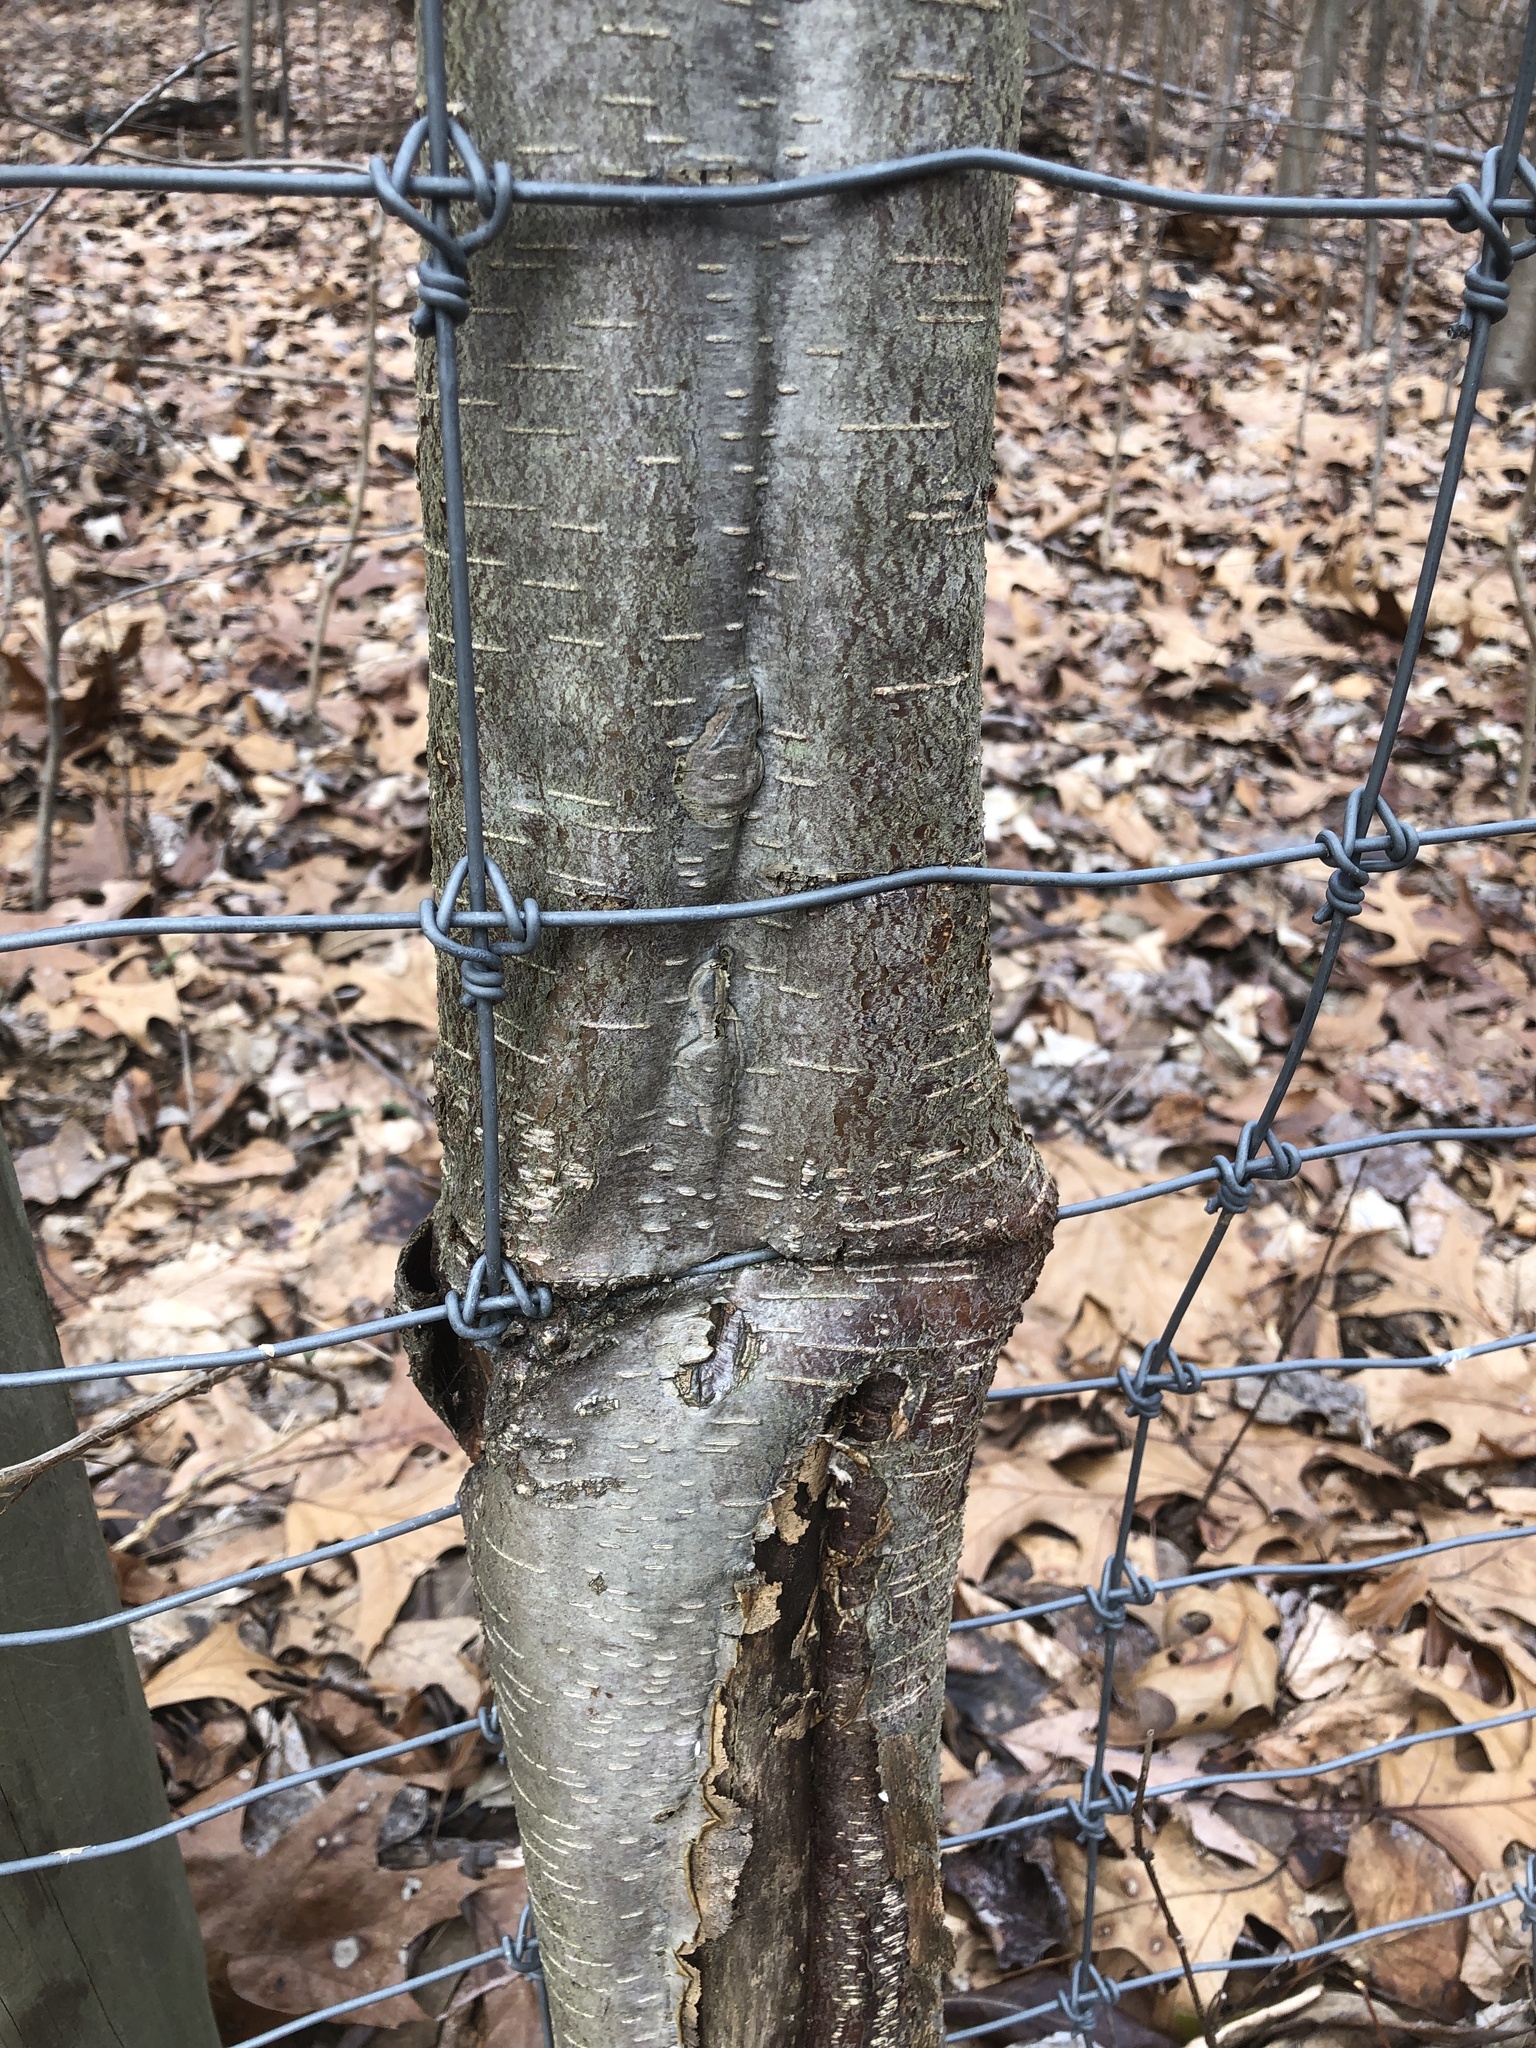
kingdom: Plantae
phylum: Tracheophyta
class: Magnoliopsida
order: Fagales
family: Betulaceae
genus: Betula
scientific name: Betula lenta
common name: Black birch
